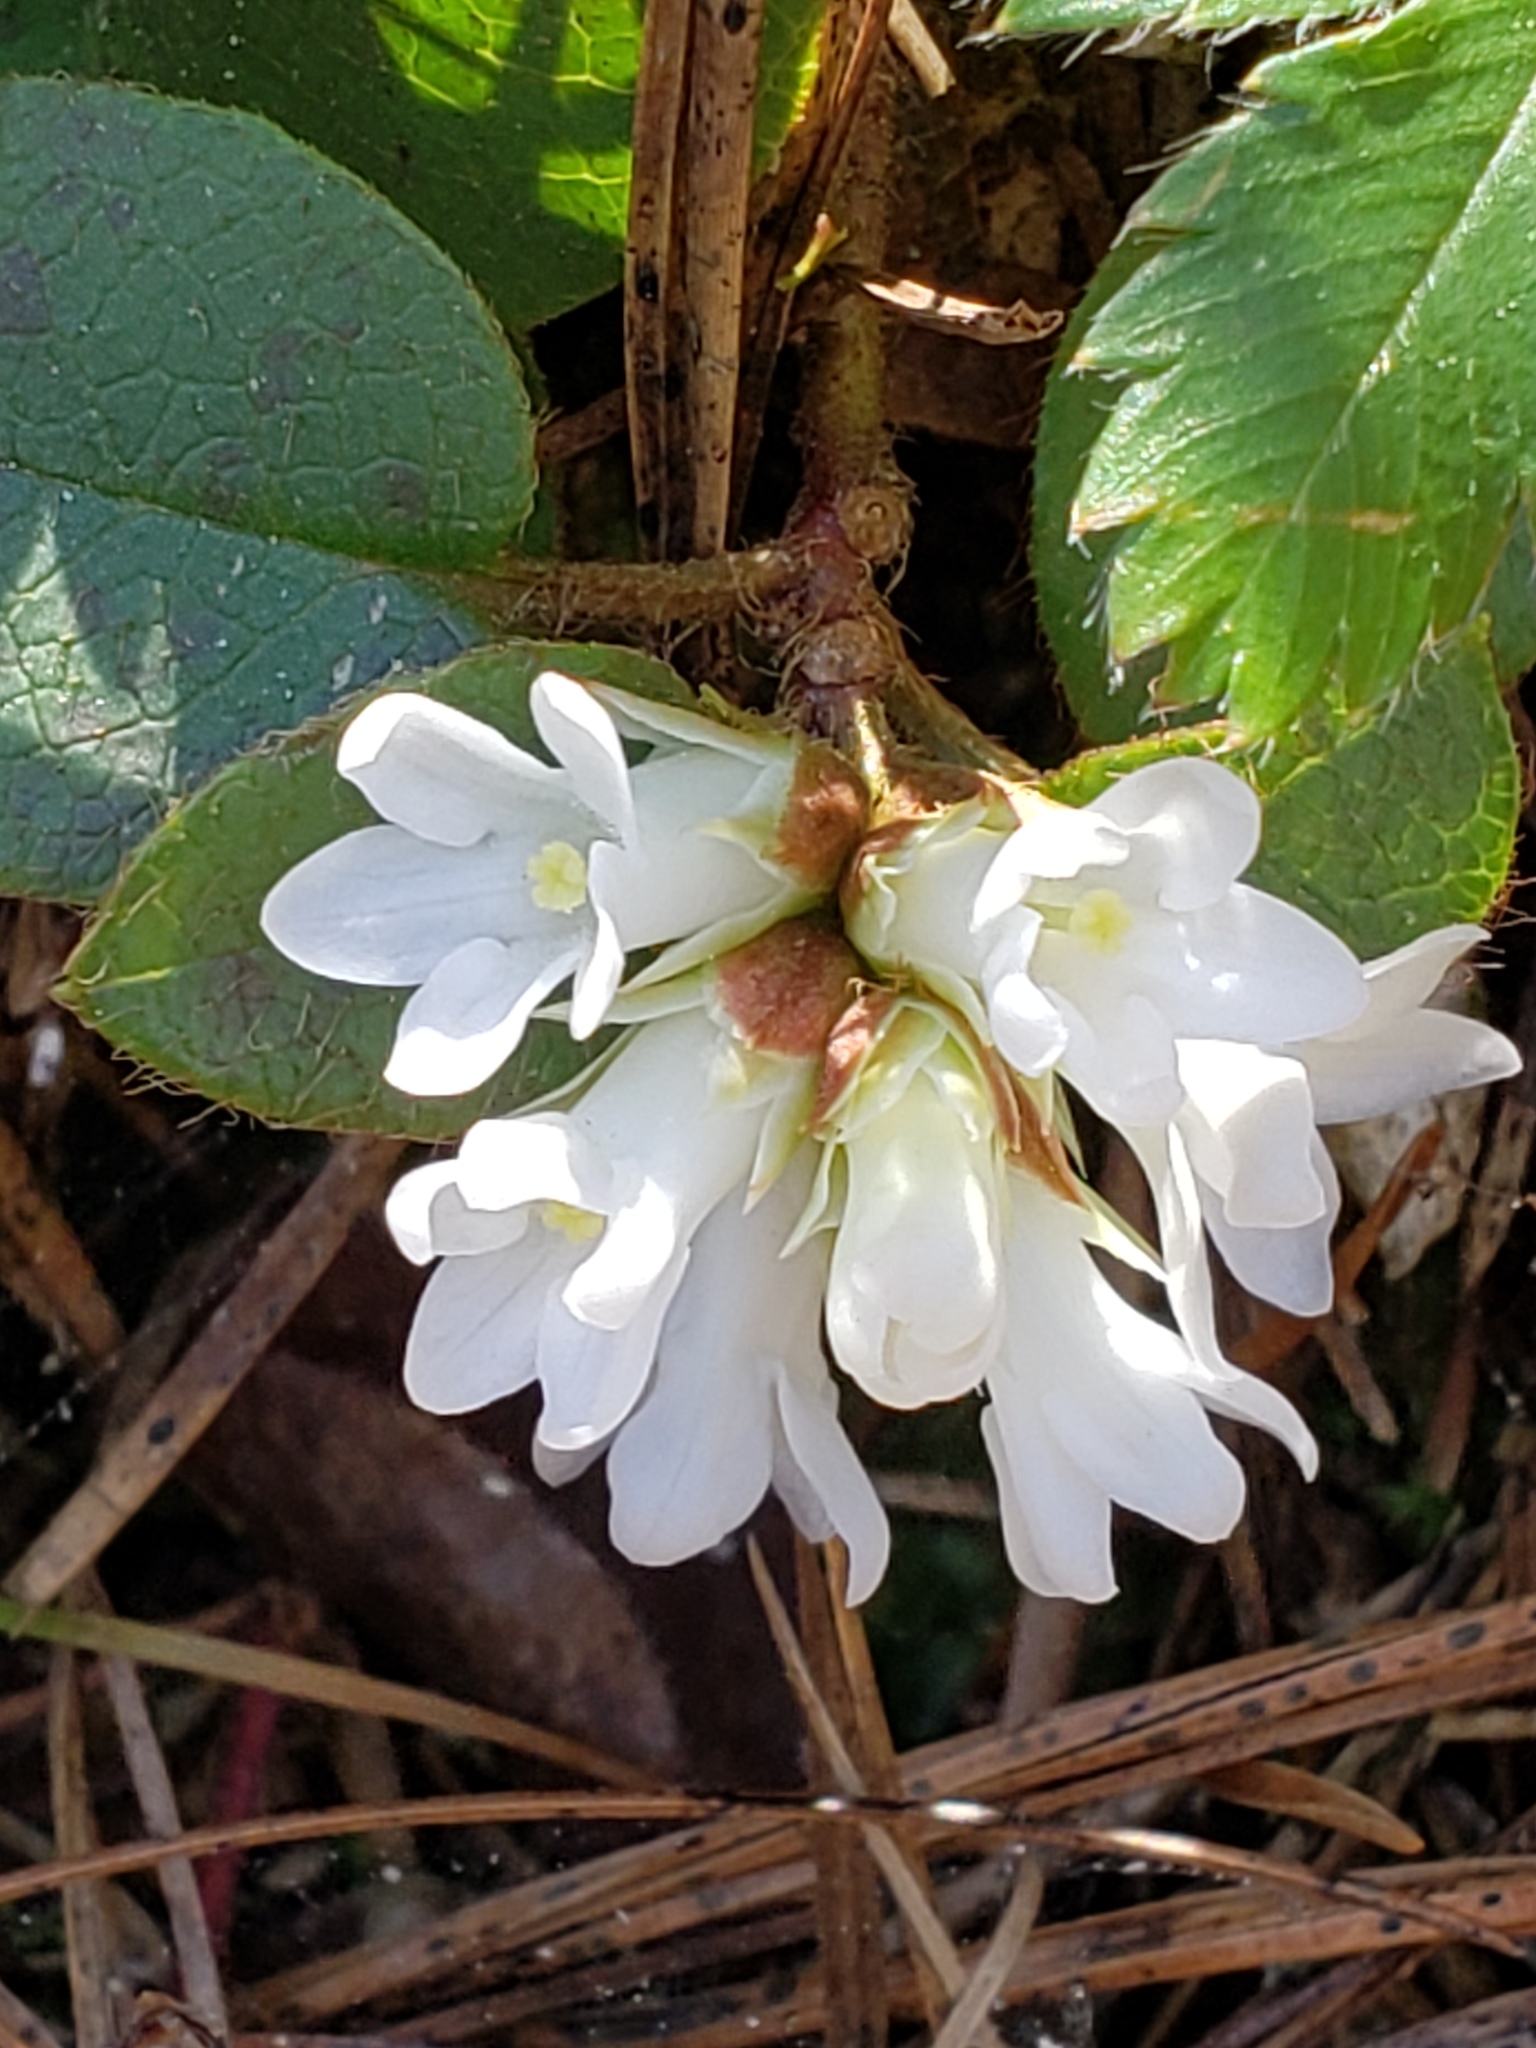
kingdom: Plantae
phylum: Tracheophyta
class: Magnoliopsida
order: Ericales
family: Ericaceae
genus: Epigaea
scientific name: Epigaea repens
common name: Gravelroot
